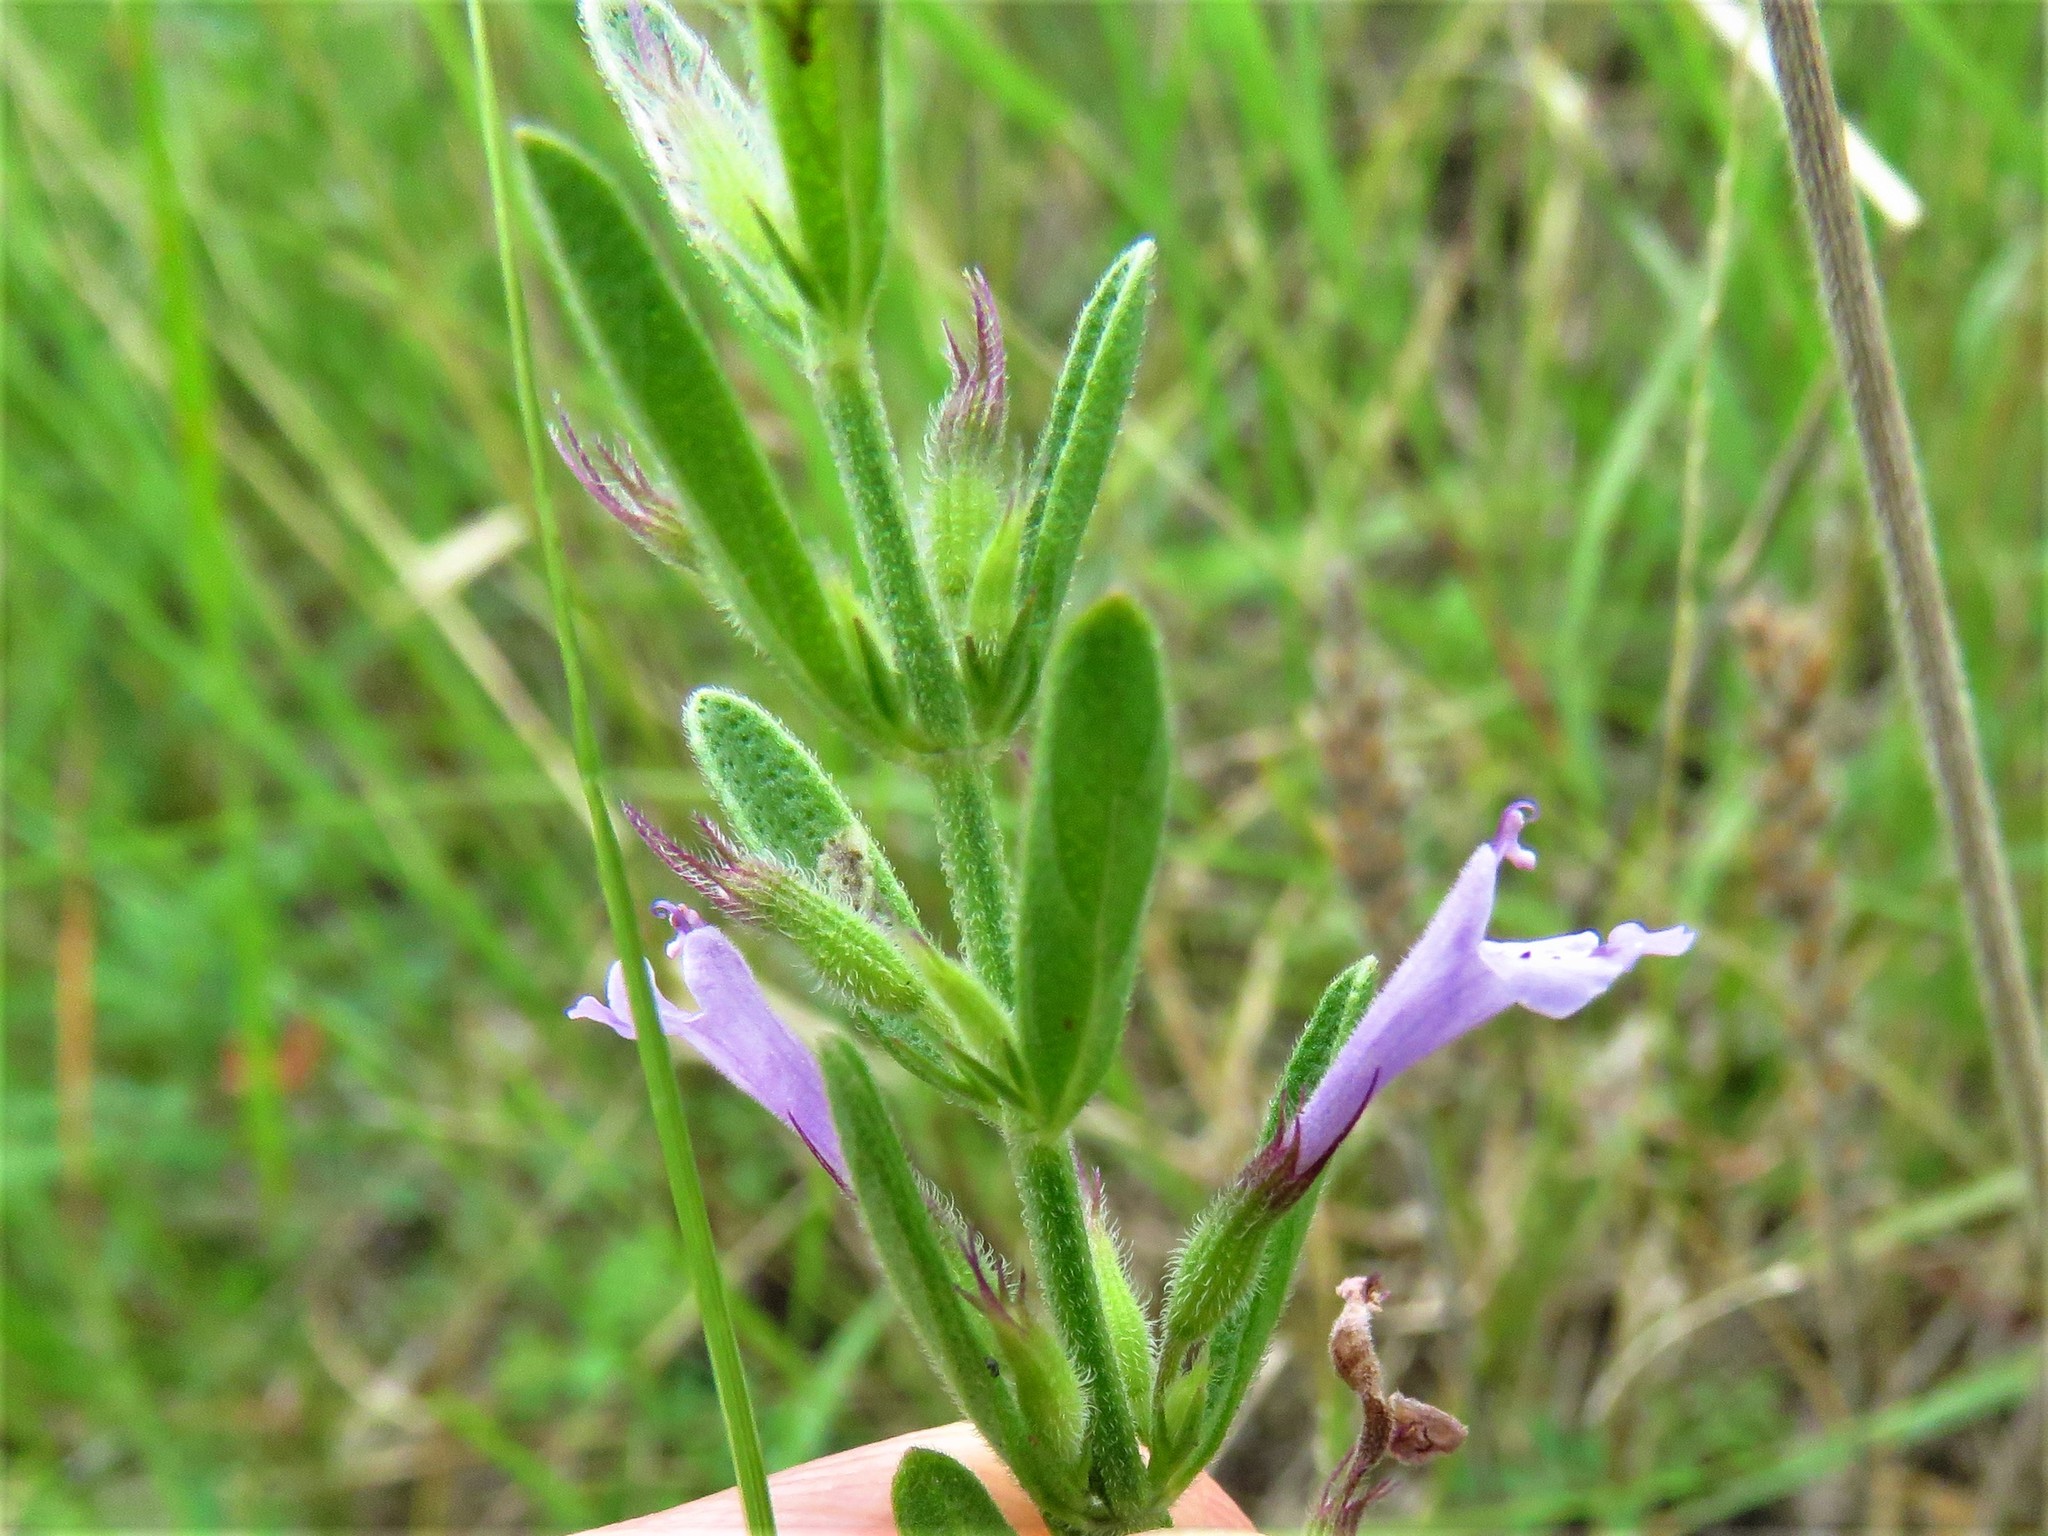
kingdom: Plantae
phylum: Tracheophyta
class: Magnoliopsida
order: Lamiales
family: Lamiaceae
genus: Hedeoma
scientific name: Hedeoma reverchonii
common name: Reverchon's false penny-royal
